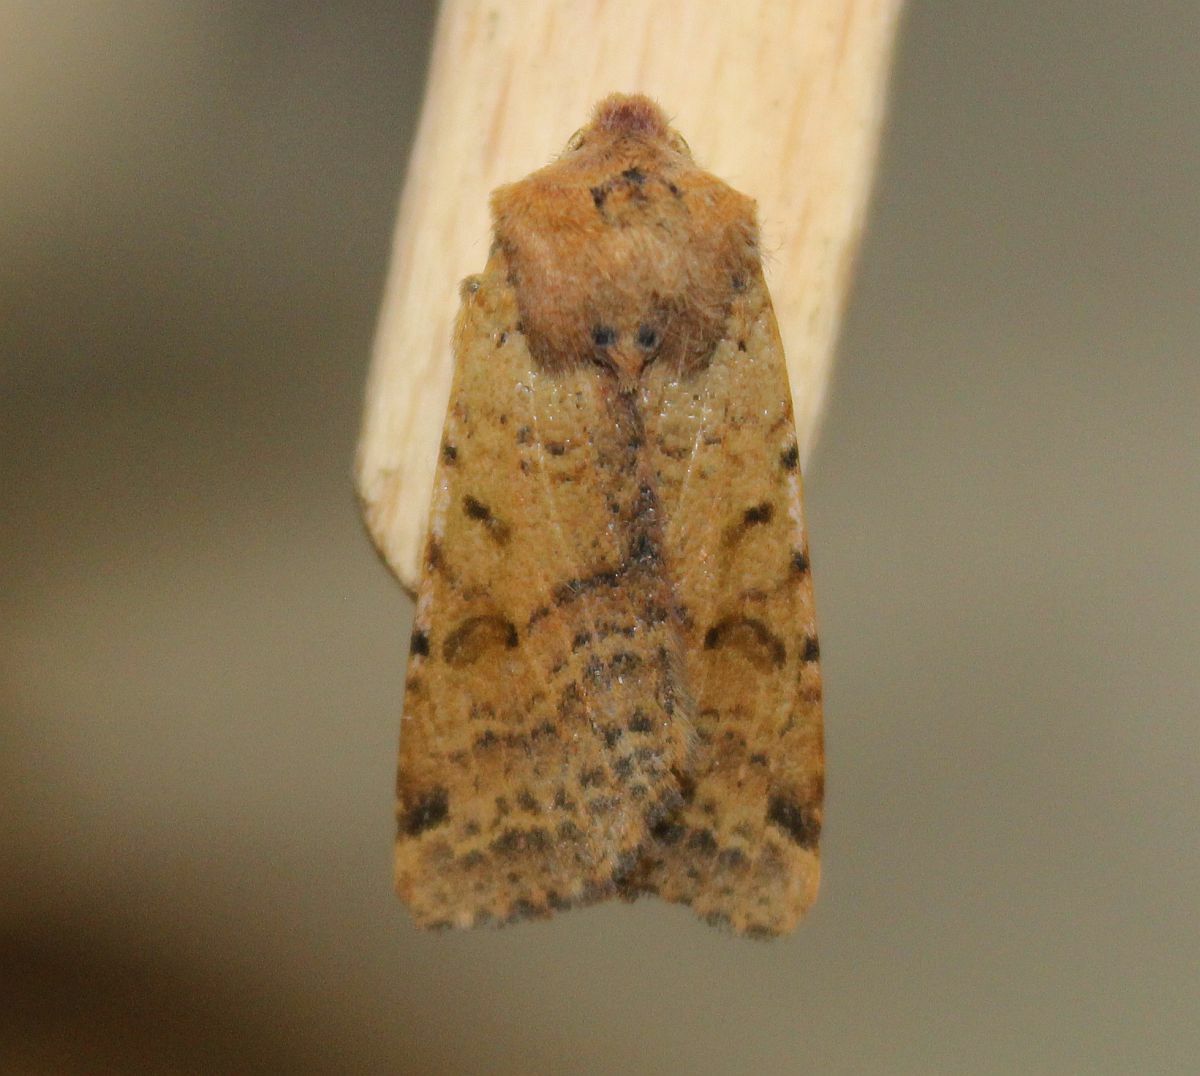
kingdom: Animalia
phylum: Arthropoda
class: Insecta
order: Lepidoptera
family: Noctuidae
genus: Agrochola
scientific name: Agrochola lychnidis
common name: Beaded chestnut
